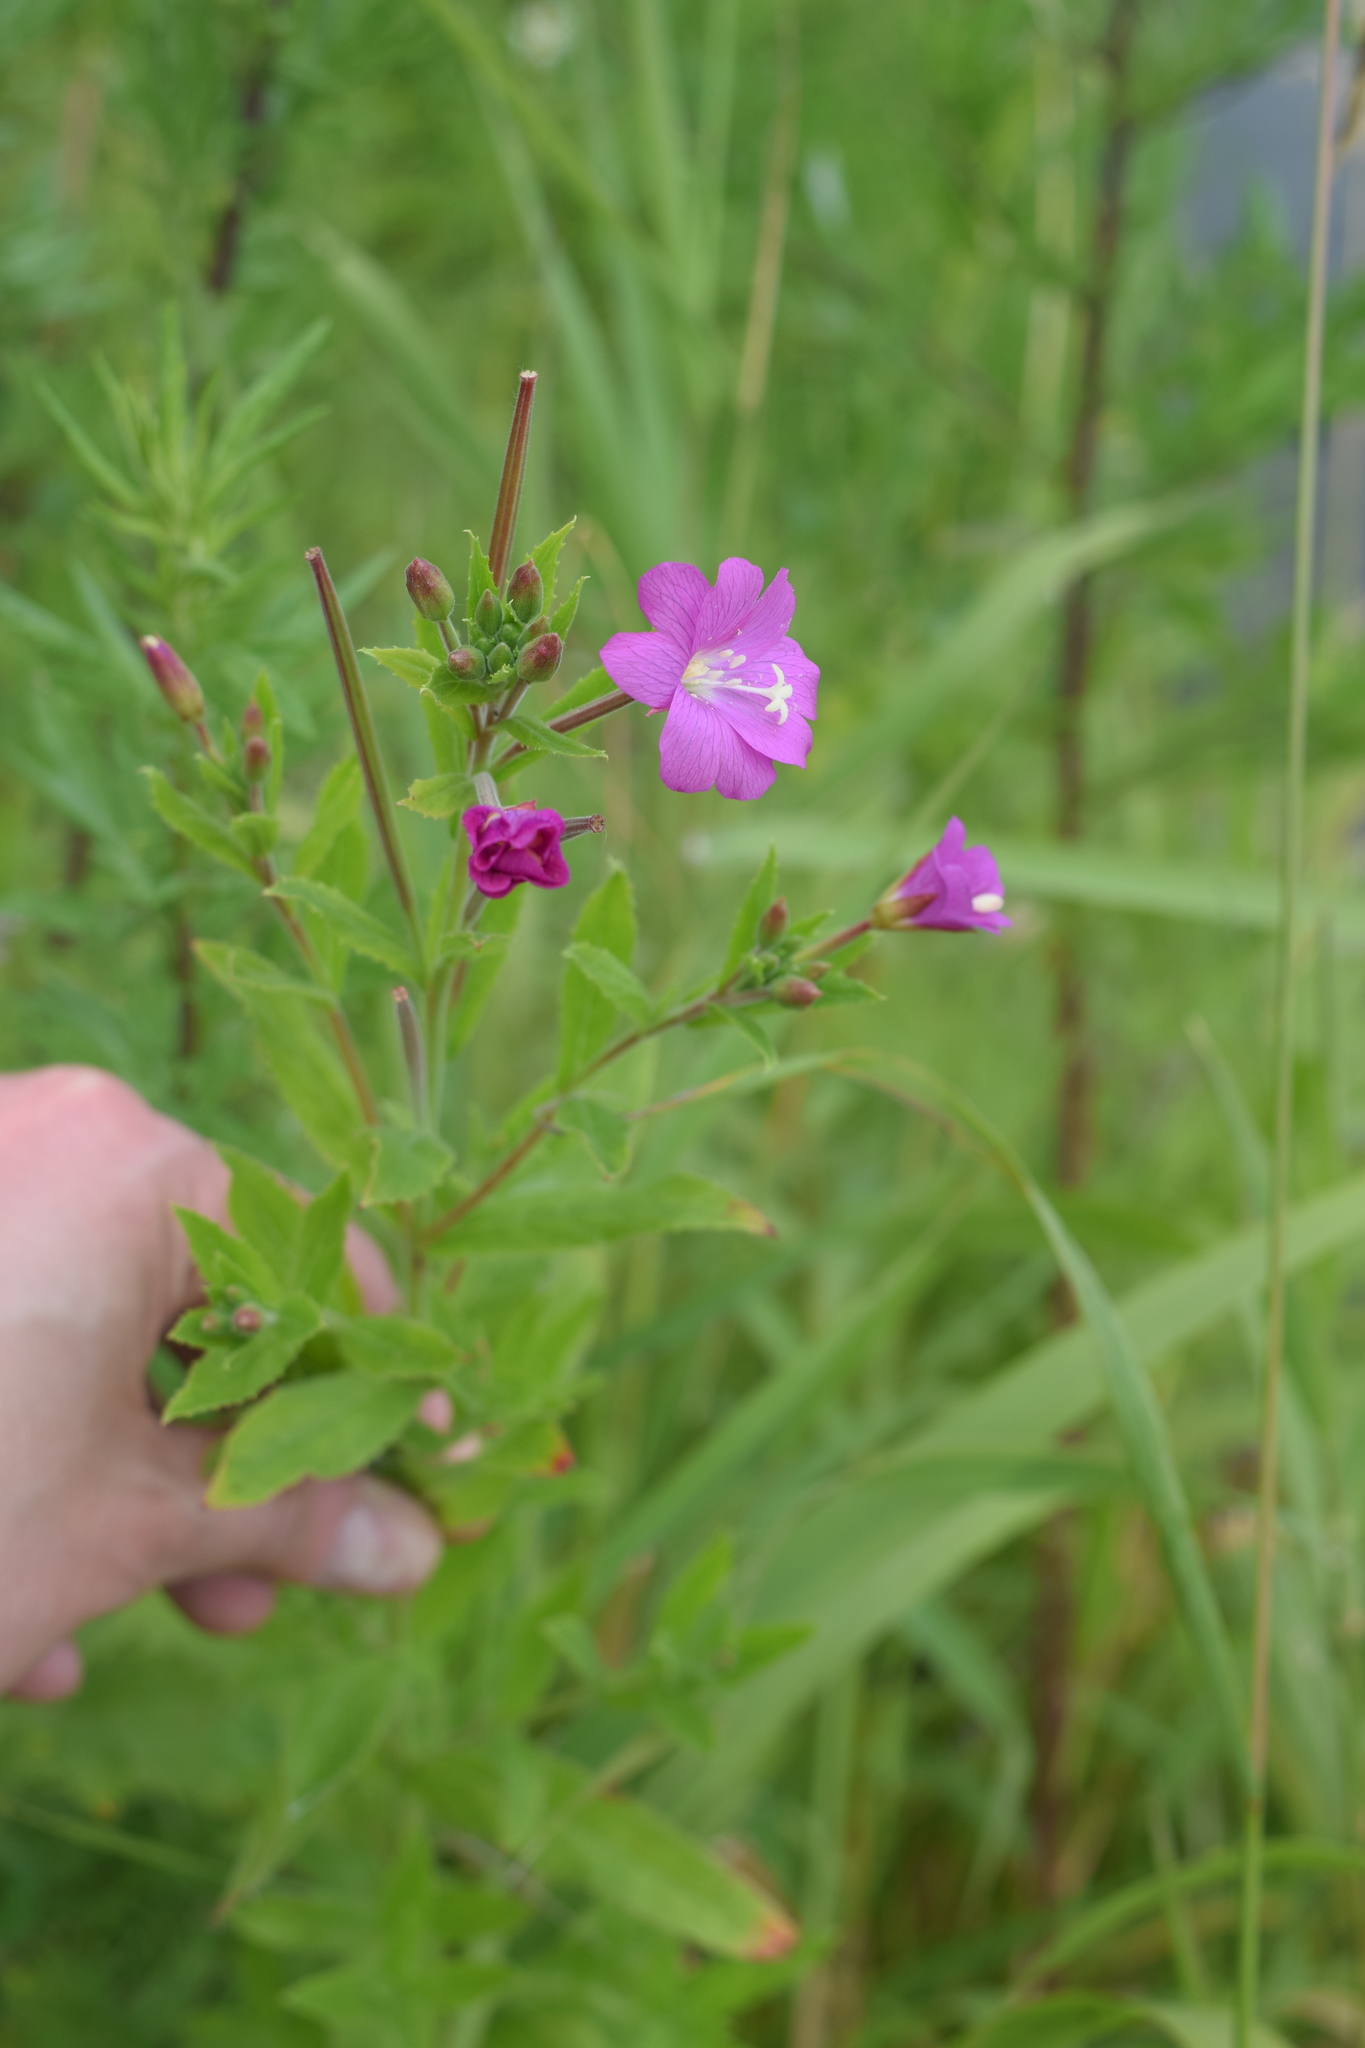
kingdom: Plantae
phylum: Tracheophyta
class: Magnoliopsida
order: Myrtales
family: Onagraceae
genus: Epilobium
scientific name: Epilobium hirsutum
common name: Great willowherb
